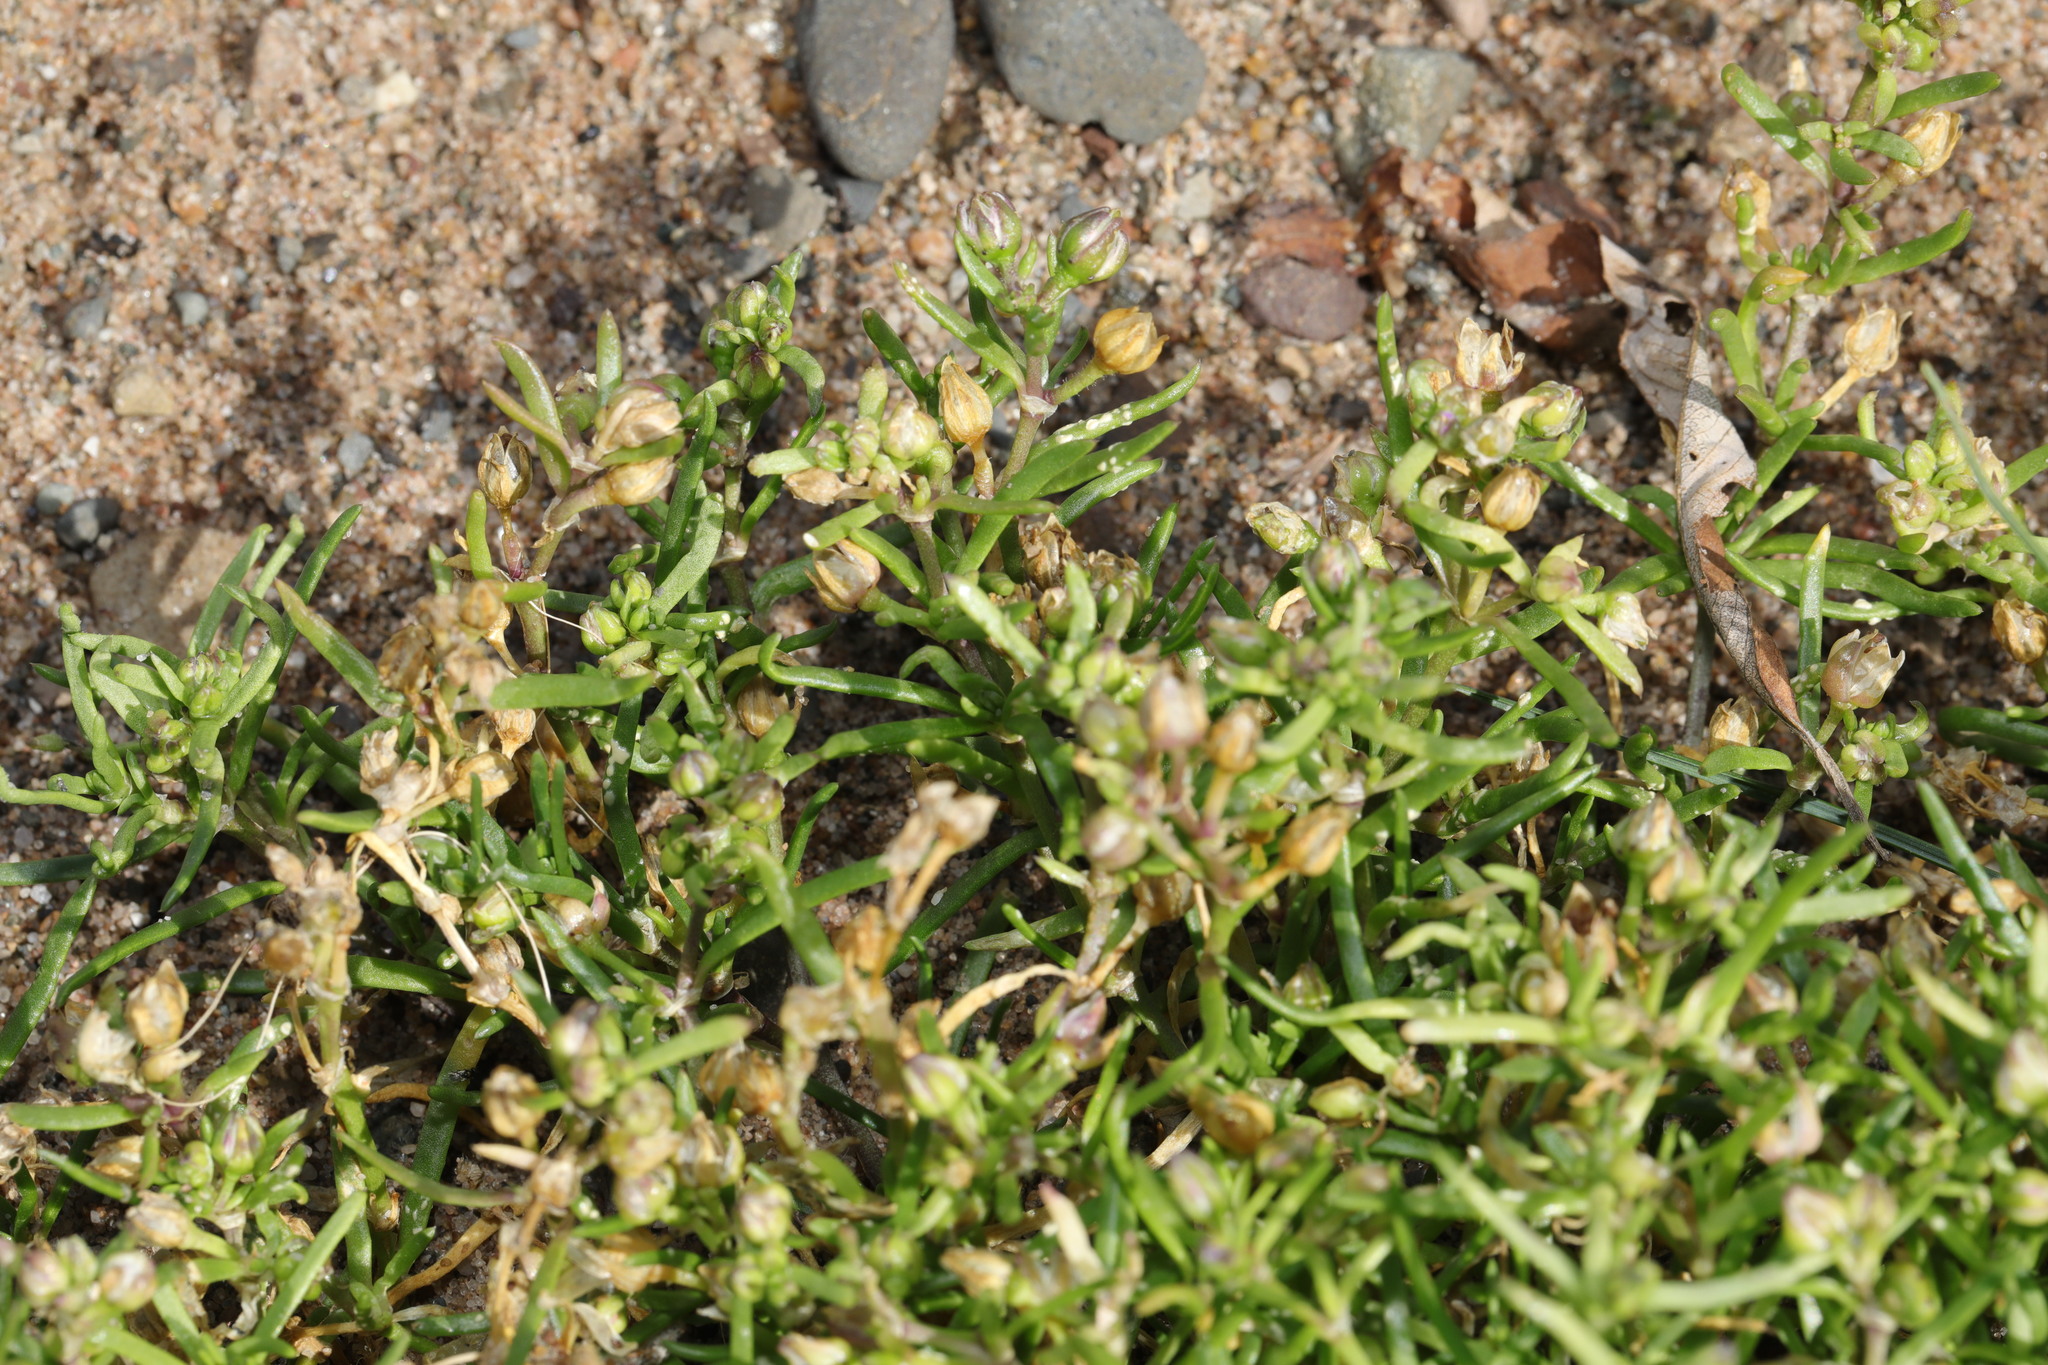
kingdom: Plantae
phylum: Tracheophyta
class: Magnoliopsida
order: Caryophyllales
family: Caryophyllaceae
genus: Spergularia
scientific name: Spergularia marina
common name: Lesser sea-spurrey
